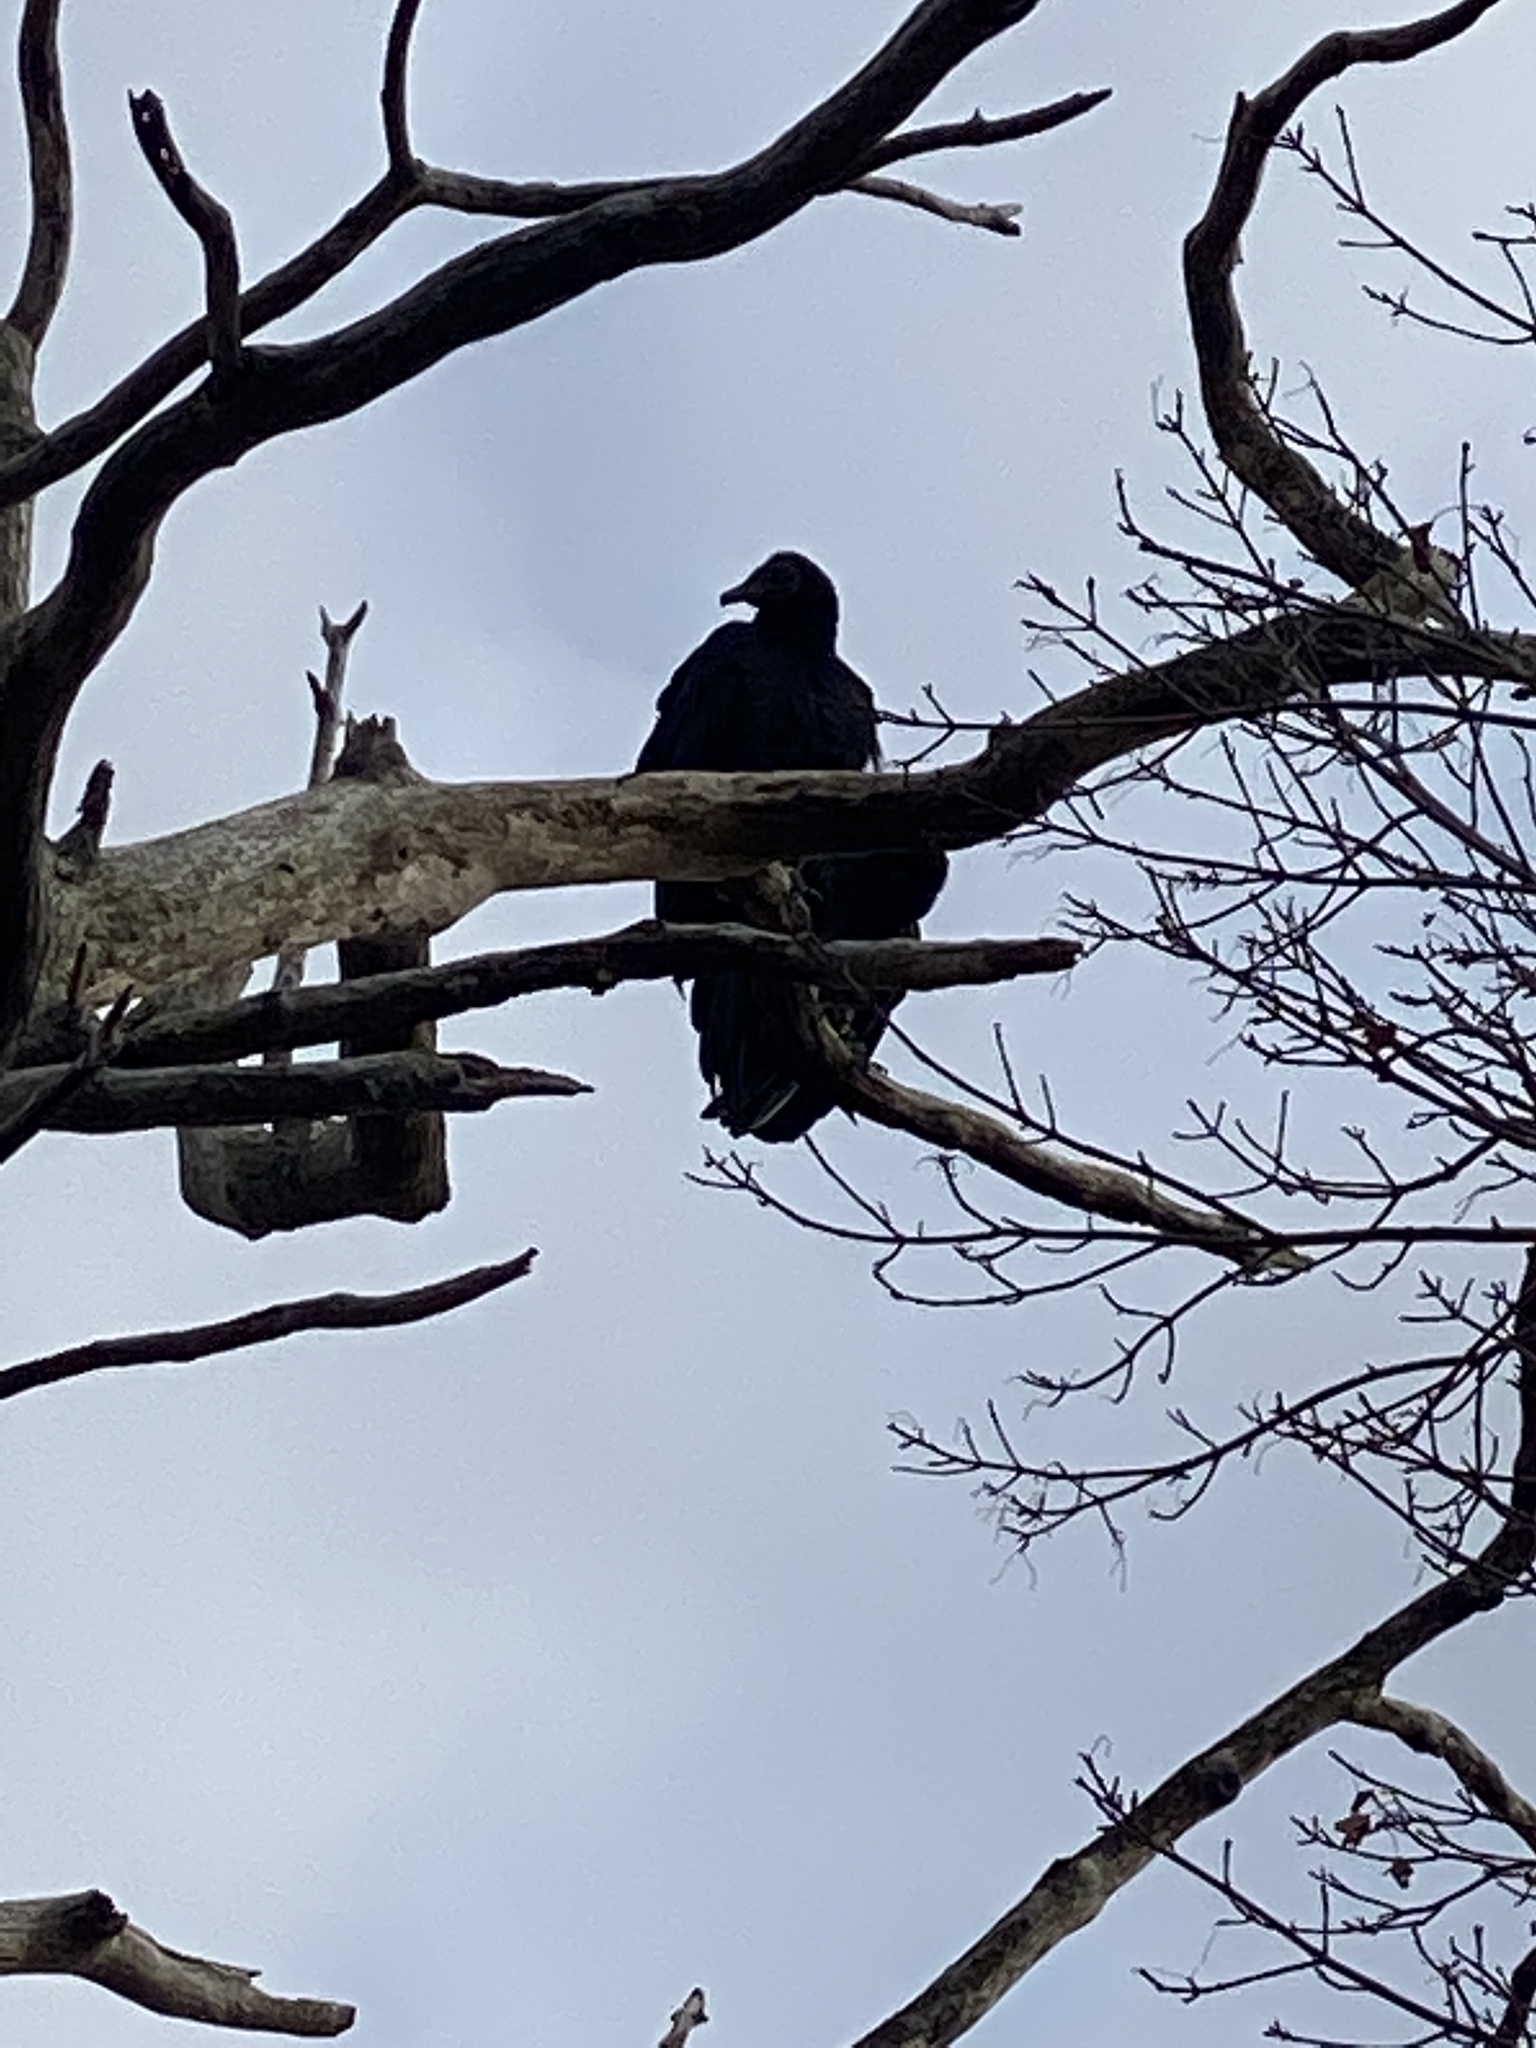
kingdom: Animalia
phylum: Chordata
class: Aves
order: Accipitriformes
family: Cathartidae
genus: Coragyps
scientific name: Coragyps atratus
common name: Black vulture
